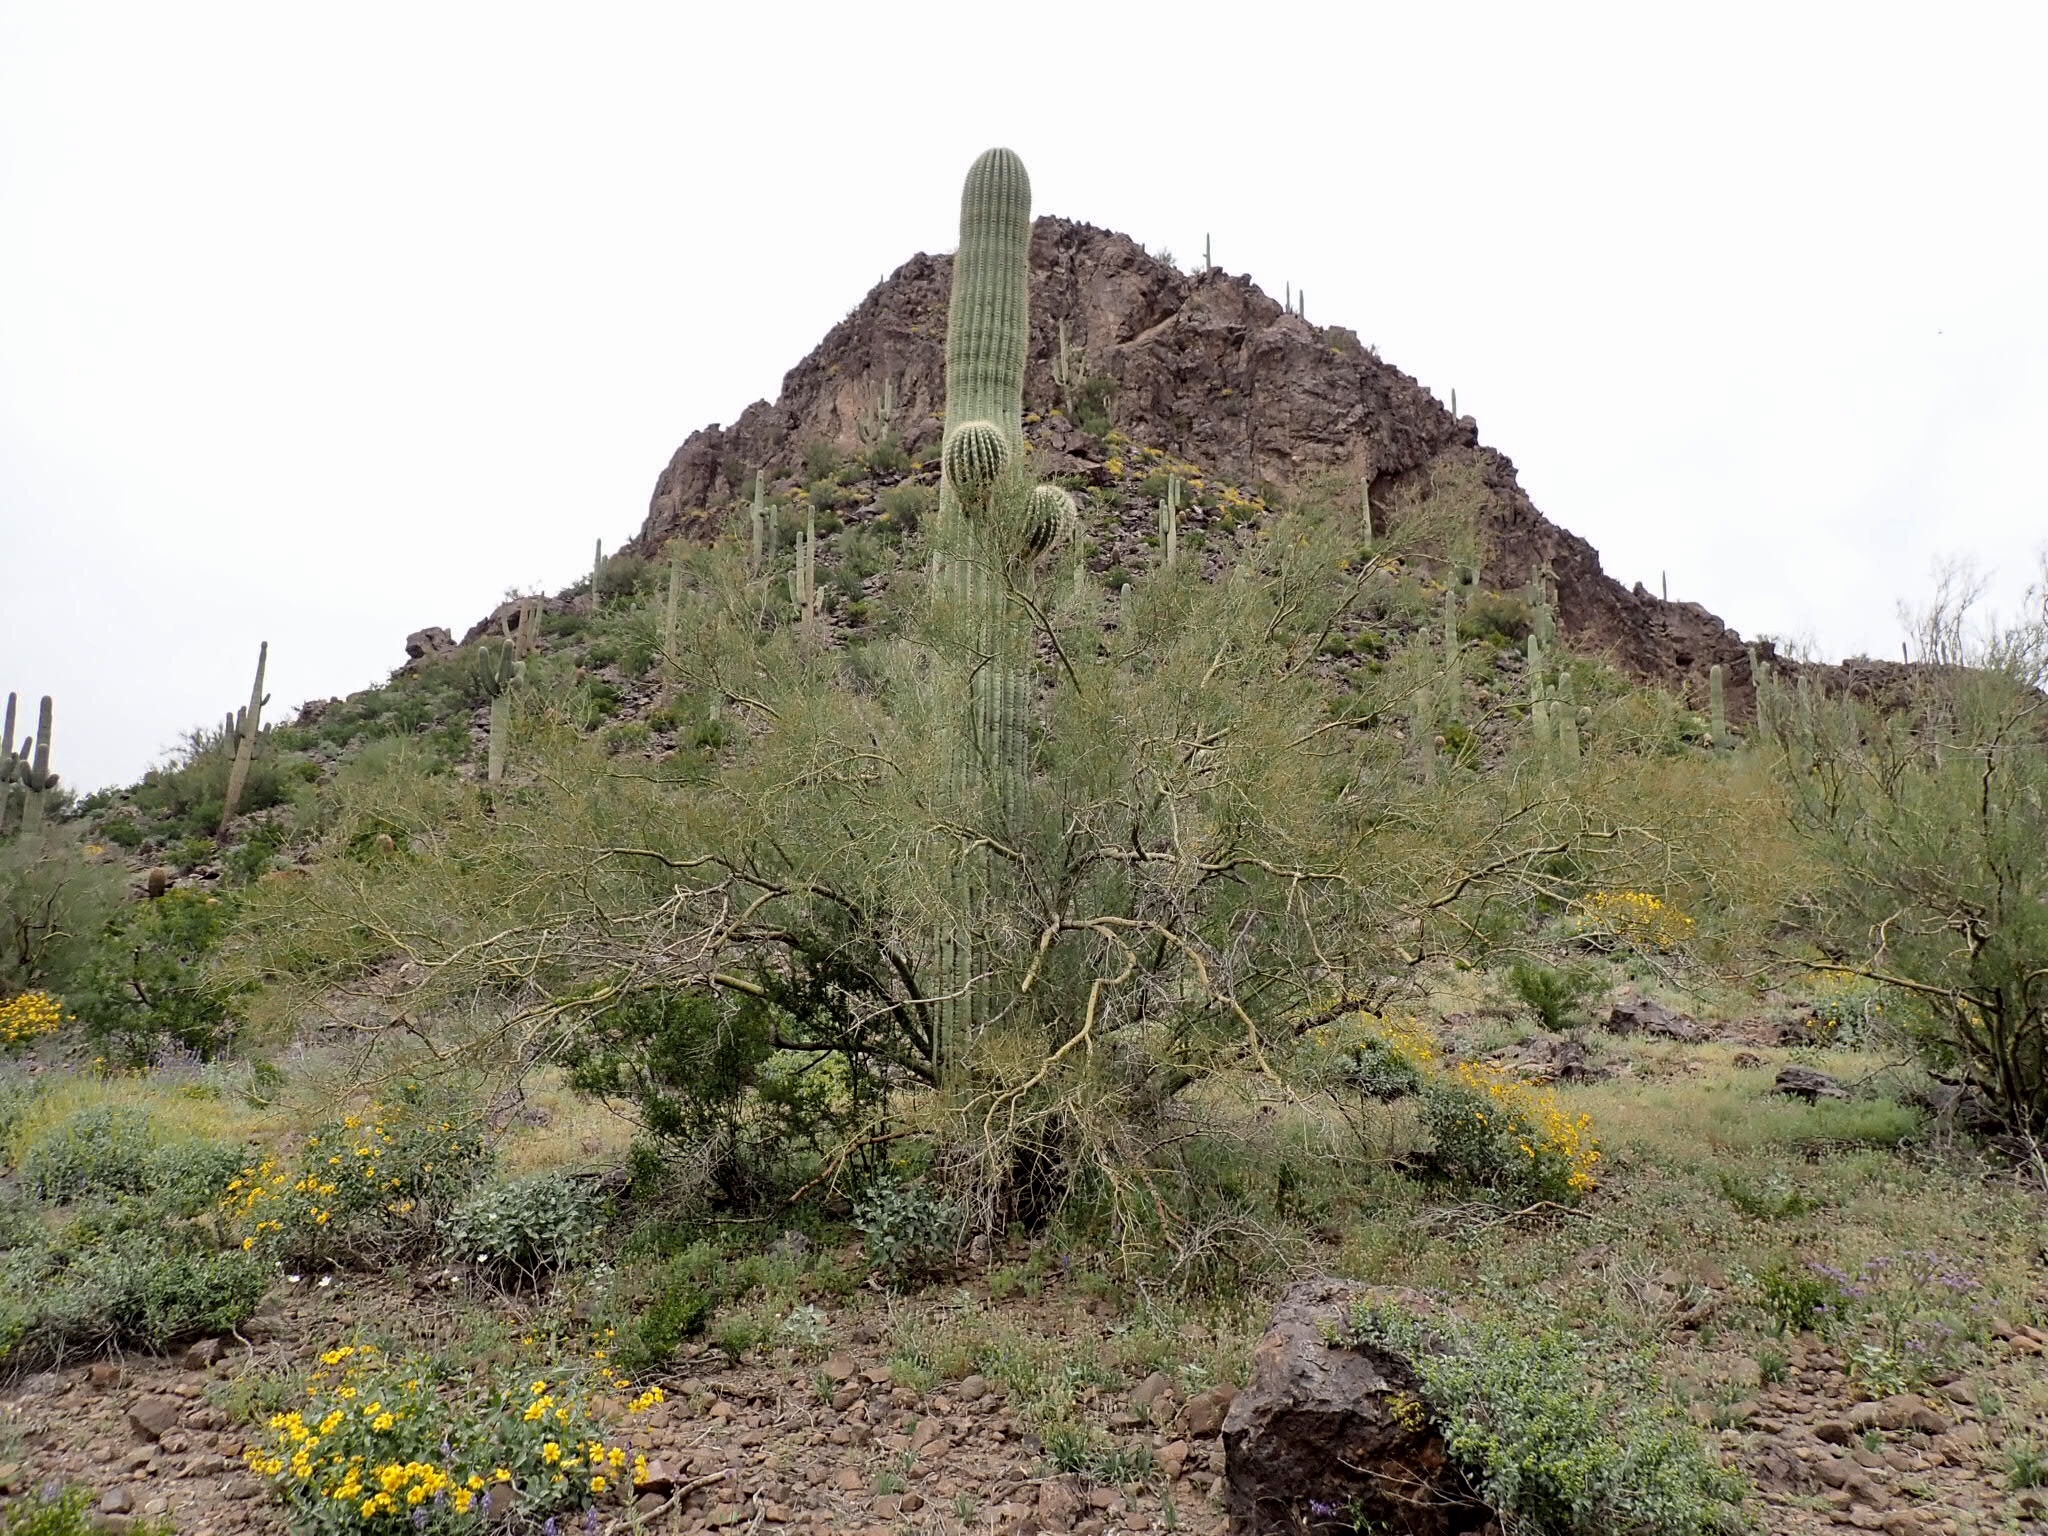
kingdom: Plantae
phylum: Tracheophyta
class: Magnoliopsida
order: Caryophyllales
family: Cactaceae
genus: Carnegiea
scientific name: Carnegiea gigantea
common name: Saguaro
